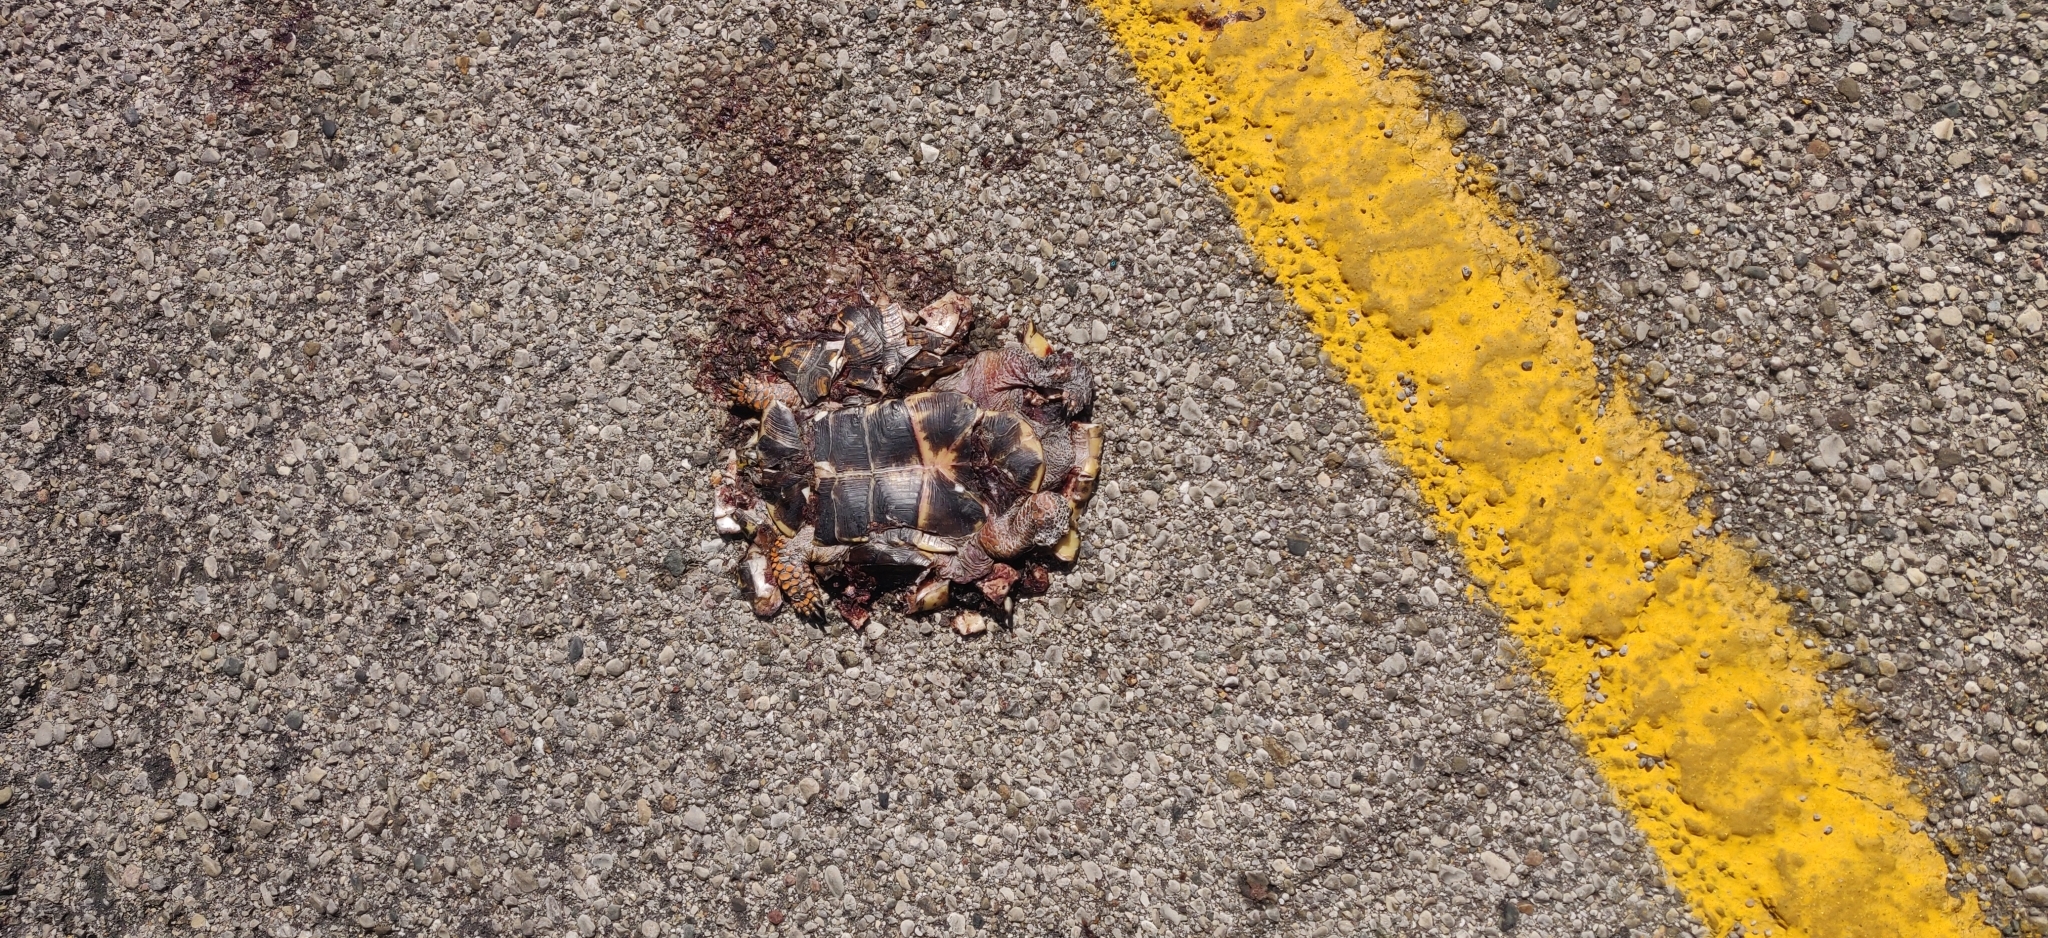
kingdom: Animalia
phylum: Chordata
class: Testudines
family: Emydidae
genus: Terrapene
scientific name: Terrapene carolina
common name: Common box turtle
